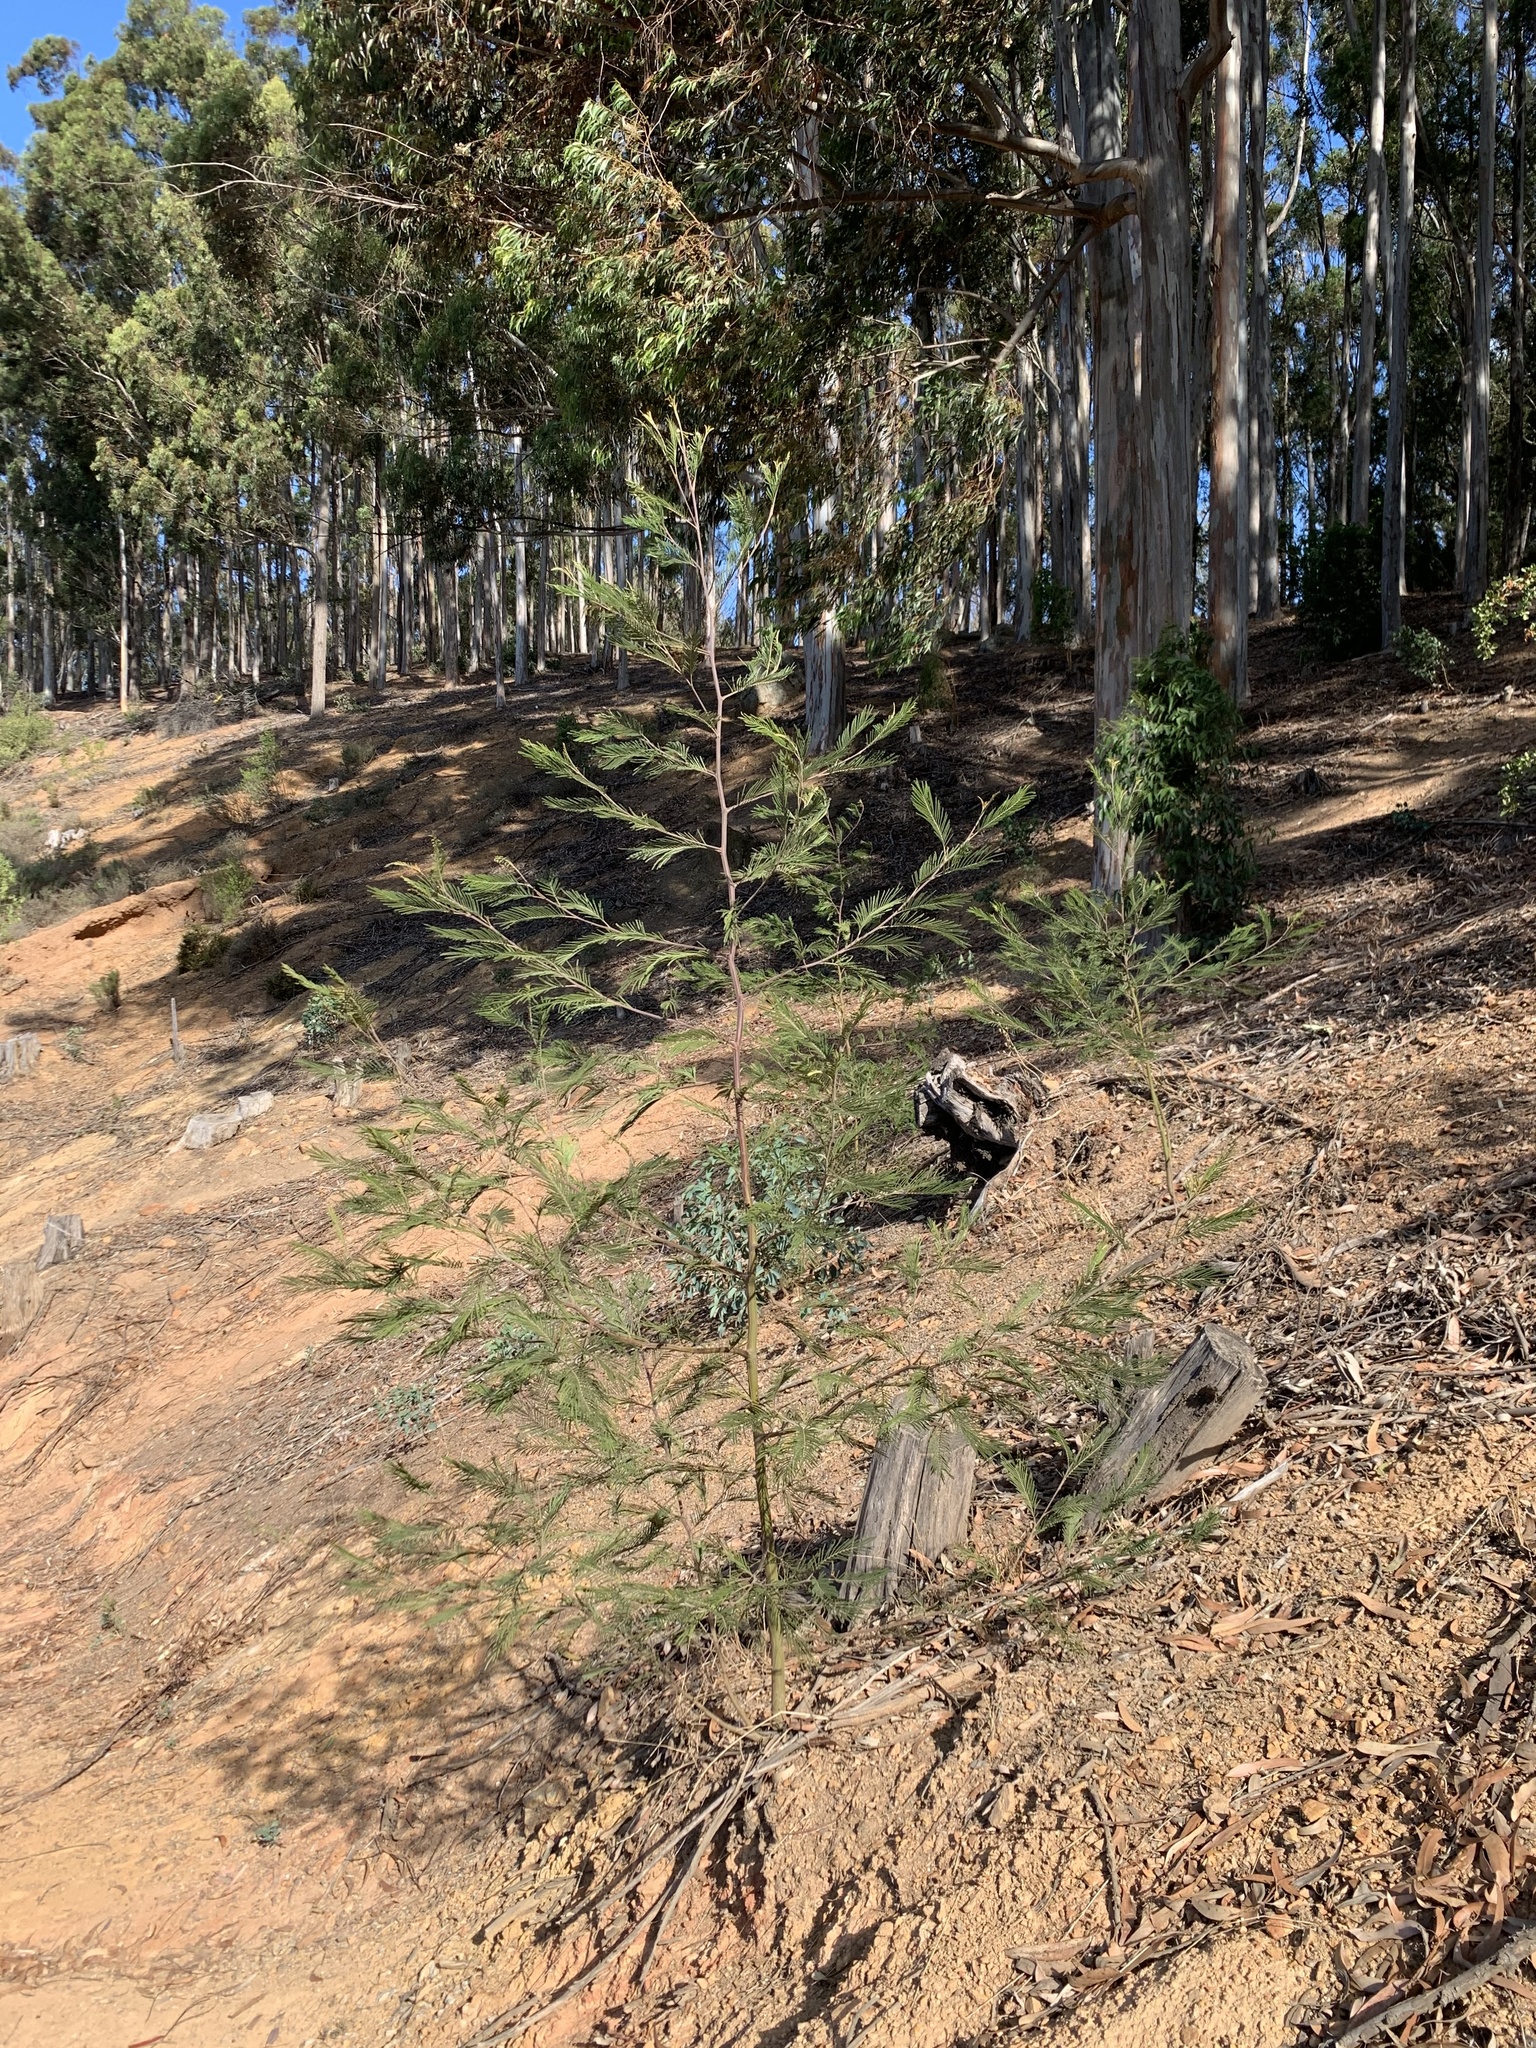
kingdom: Plantae
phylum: Tracheophyta
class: Magnoliopsida
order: Fabales
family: Fabaceae
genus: Acacia
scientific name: Acacia mearnsii
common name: Black wattle
